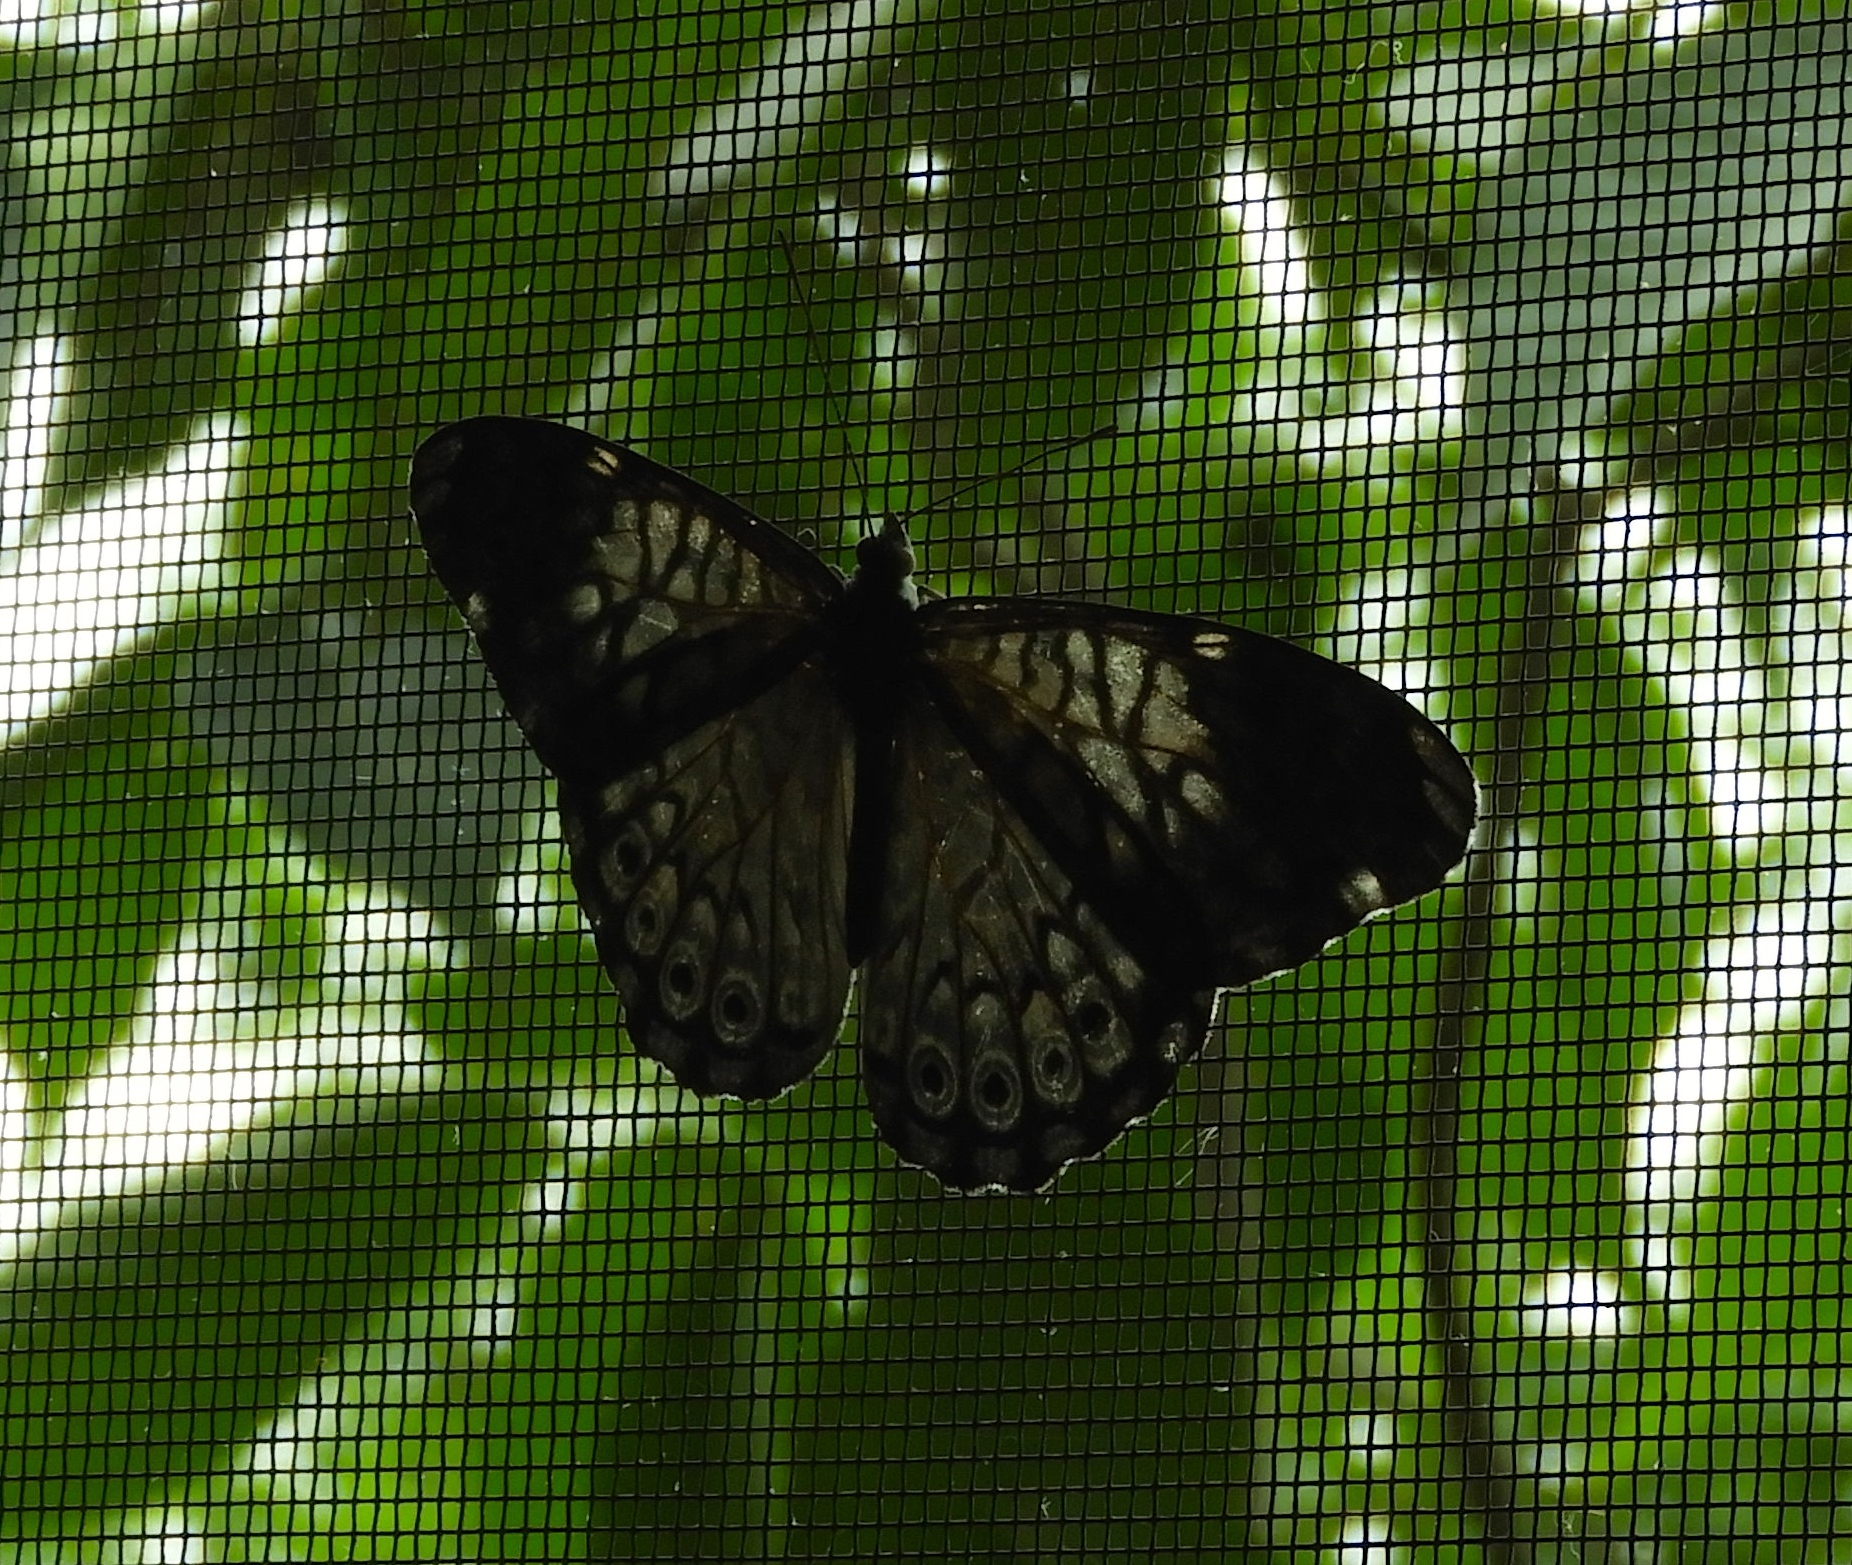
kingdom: Animalia
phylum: Arthropoda
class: Insecta
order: Lepidoptera
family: Nymphalidae
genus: Hamadryas
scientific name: Hamadryas lelaps
